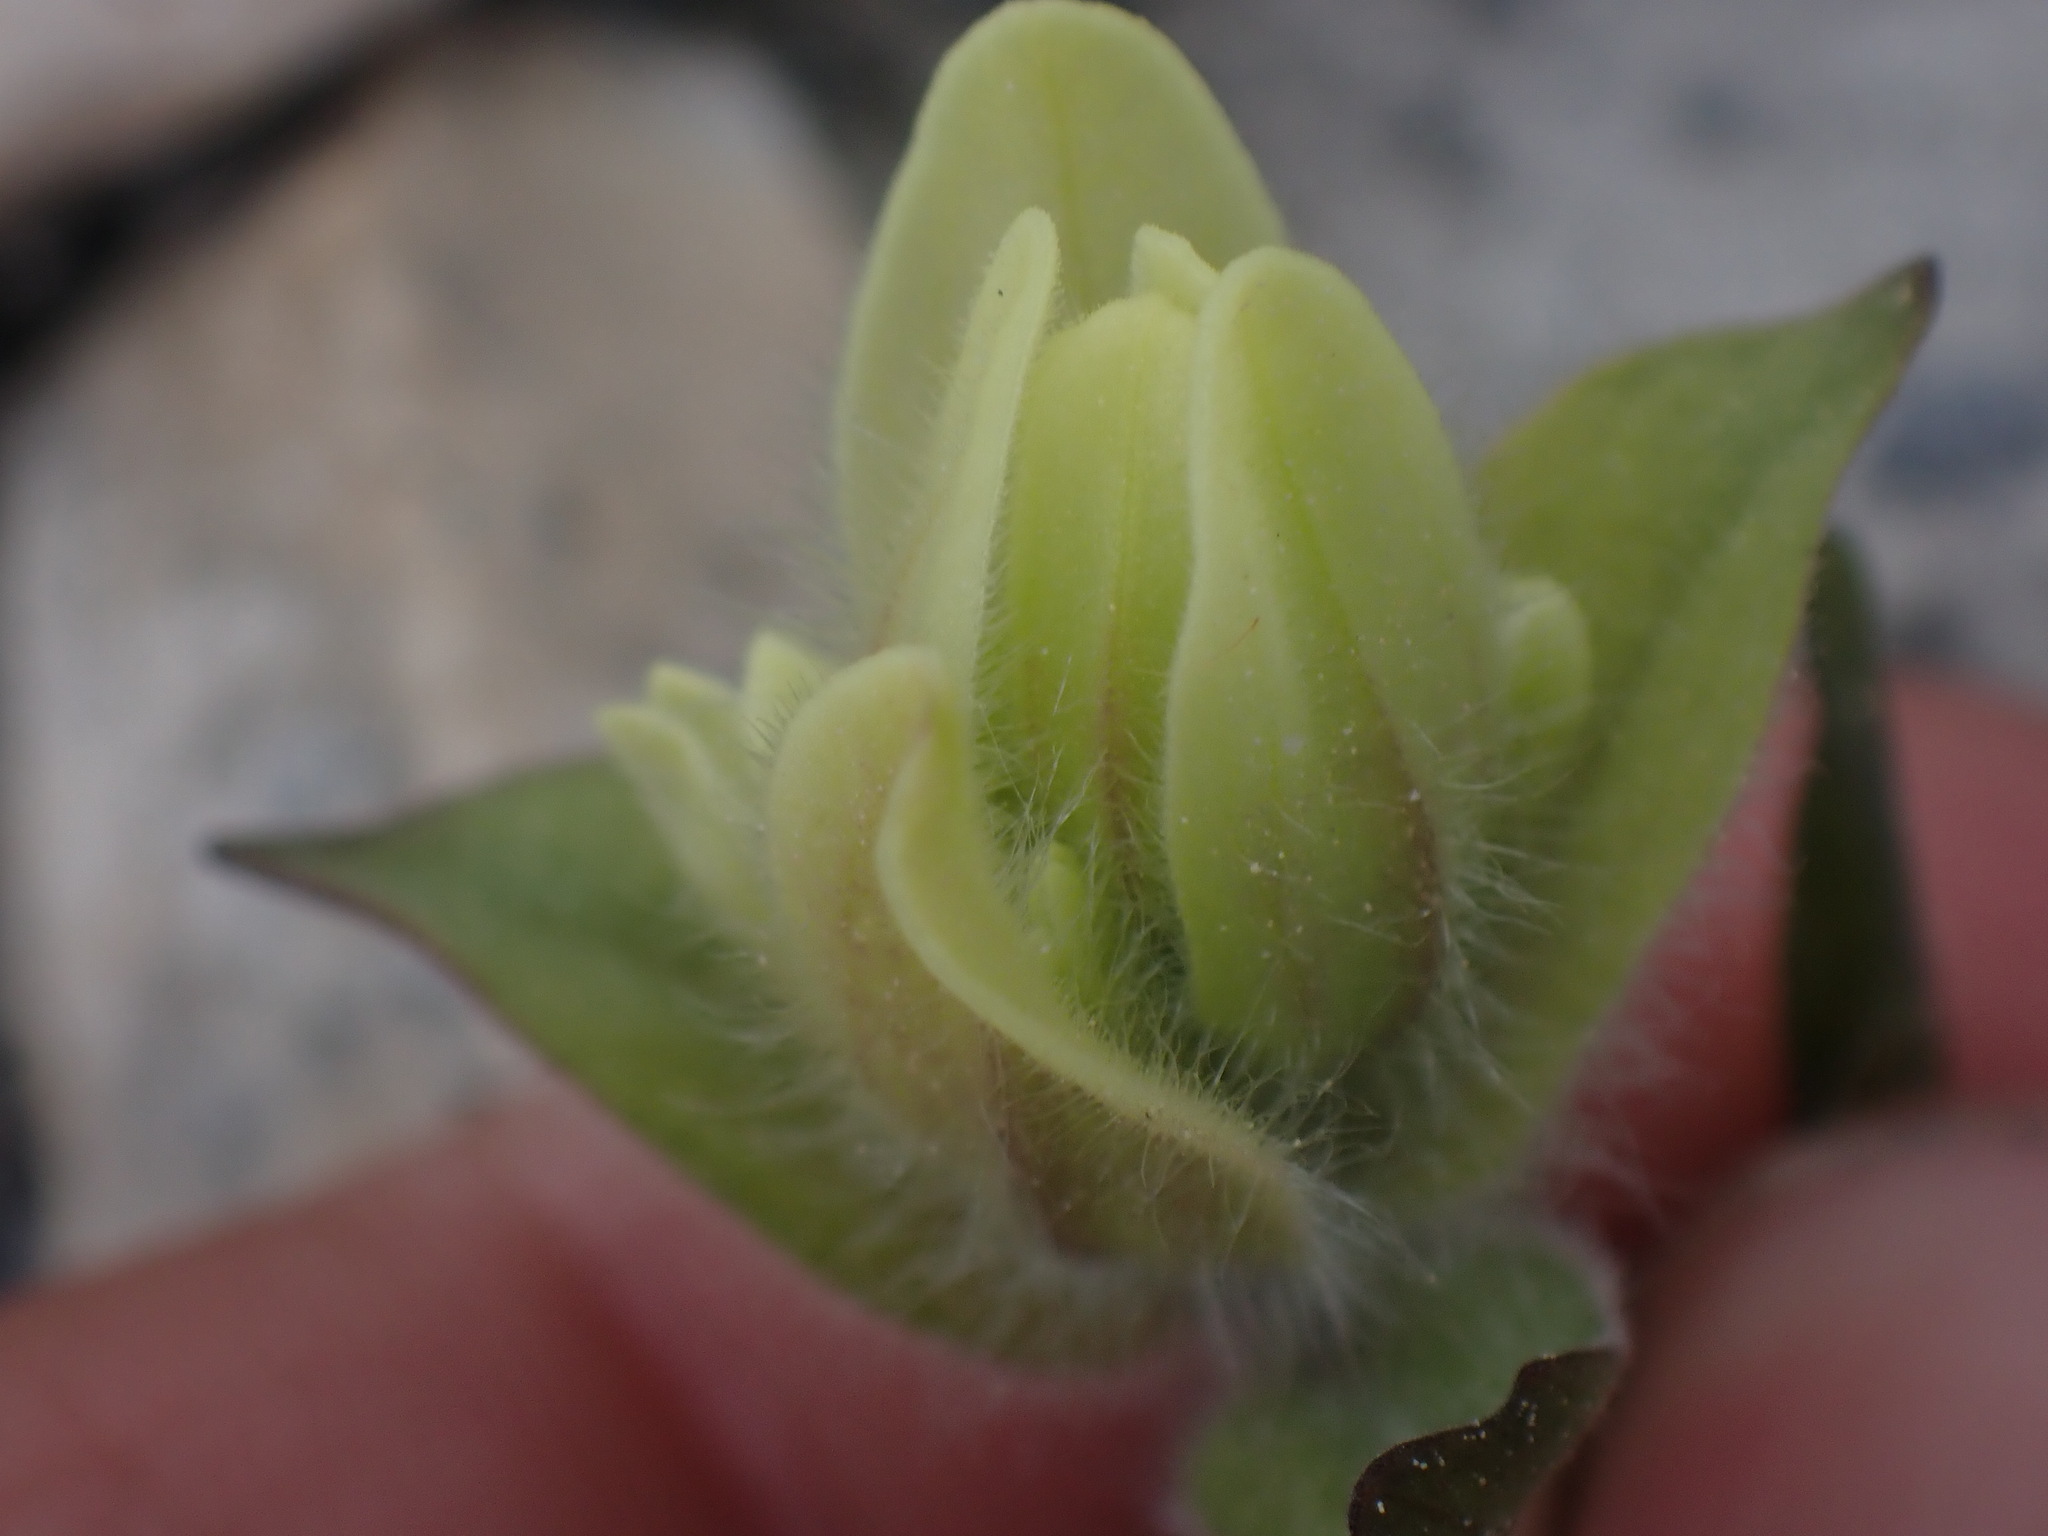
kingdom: Plantae
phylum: Tracheophyta
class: Magnoliopsida
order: Lamiales
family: Orobanchaceae
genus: Castilleja
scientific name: Castilleja occidentalis
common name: Western paintbrush
